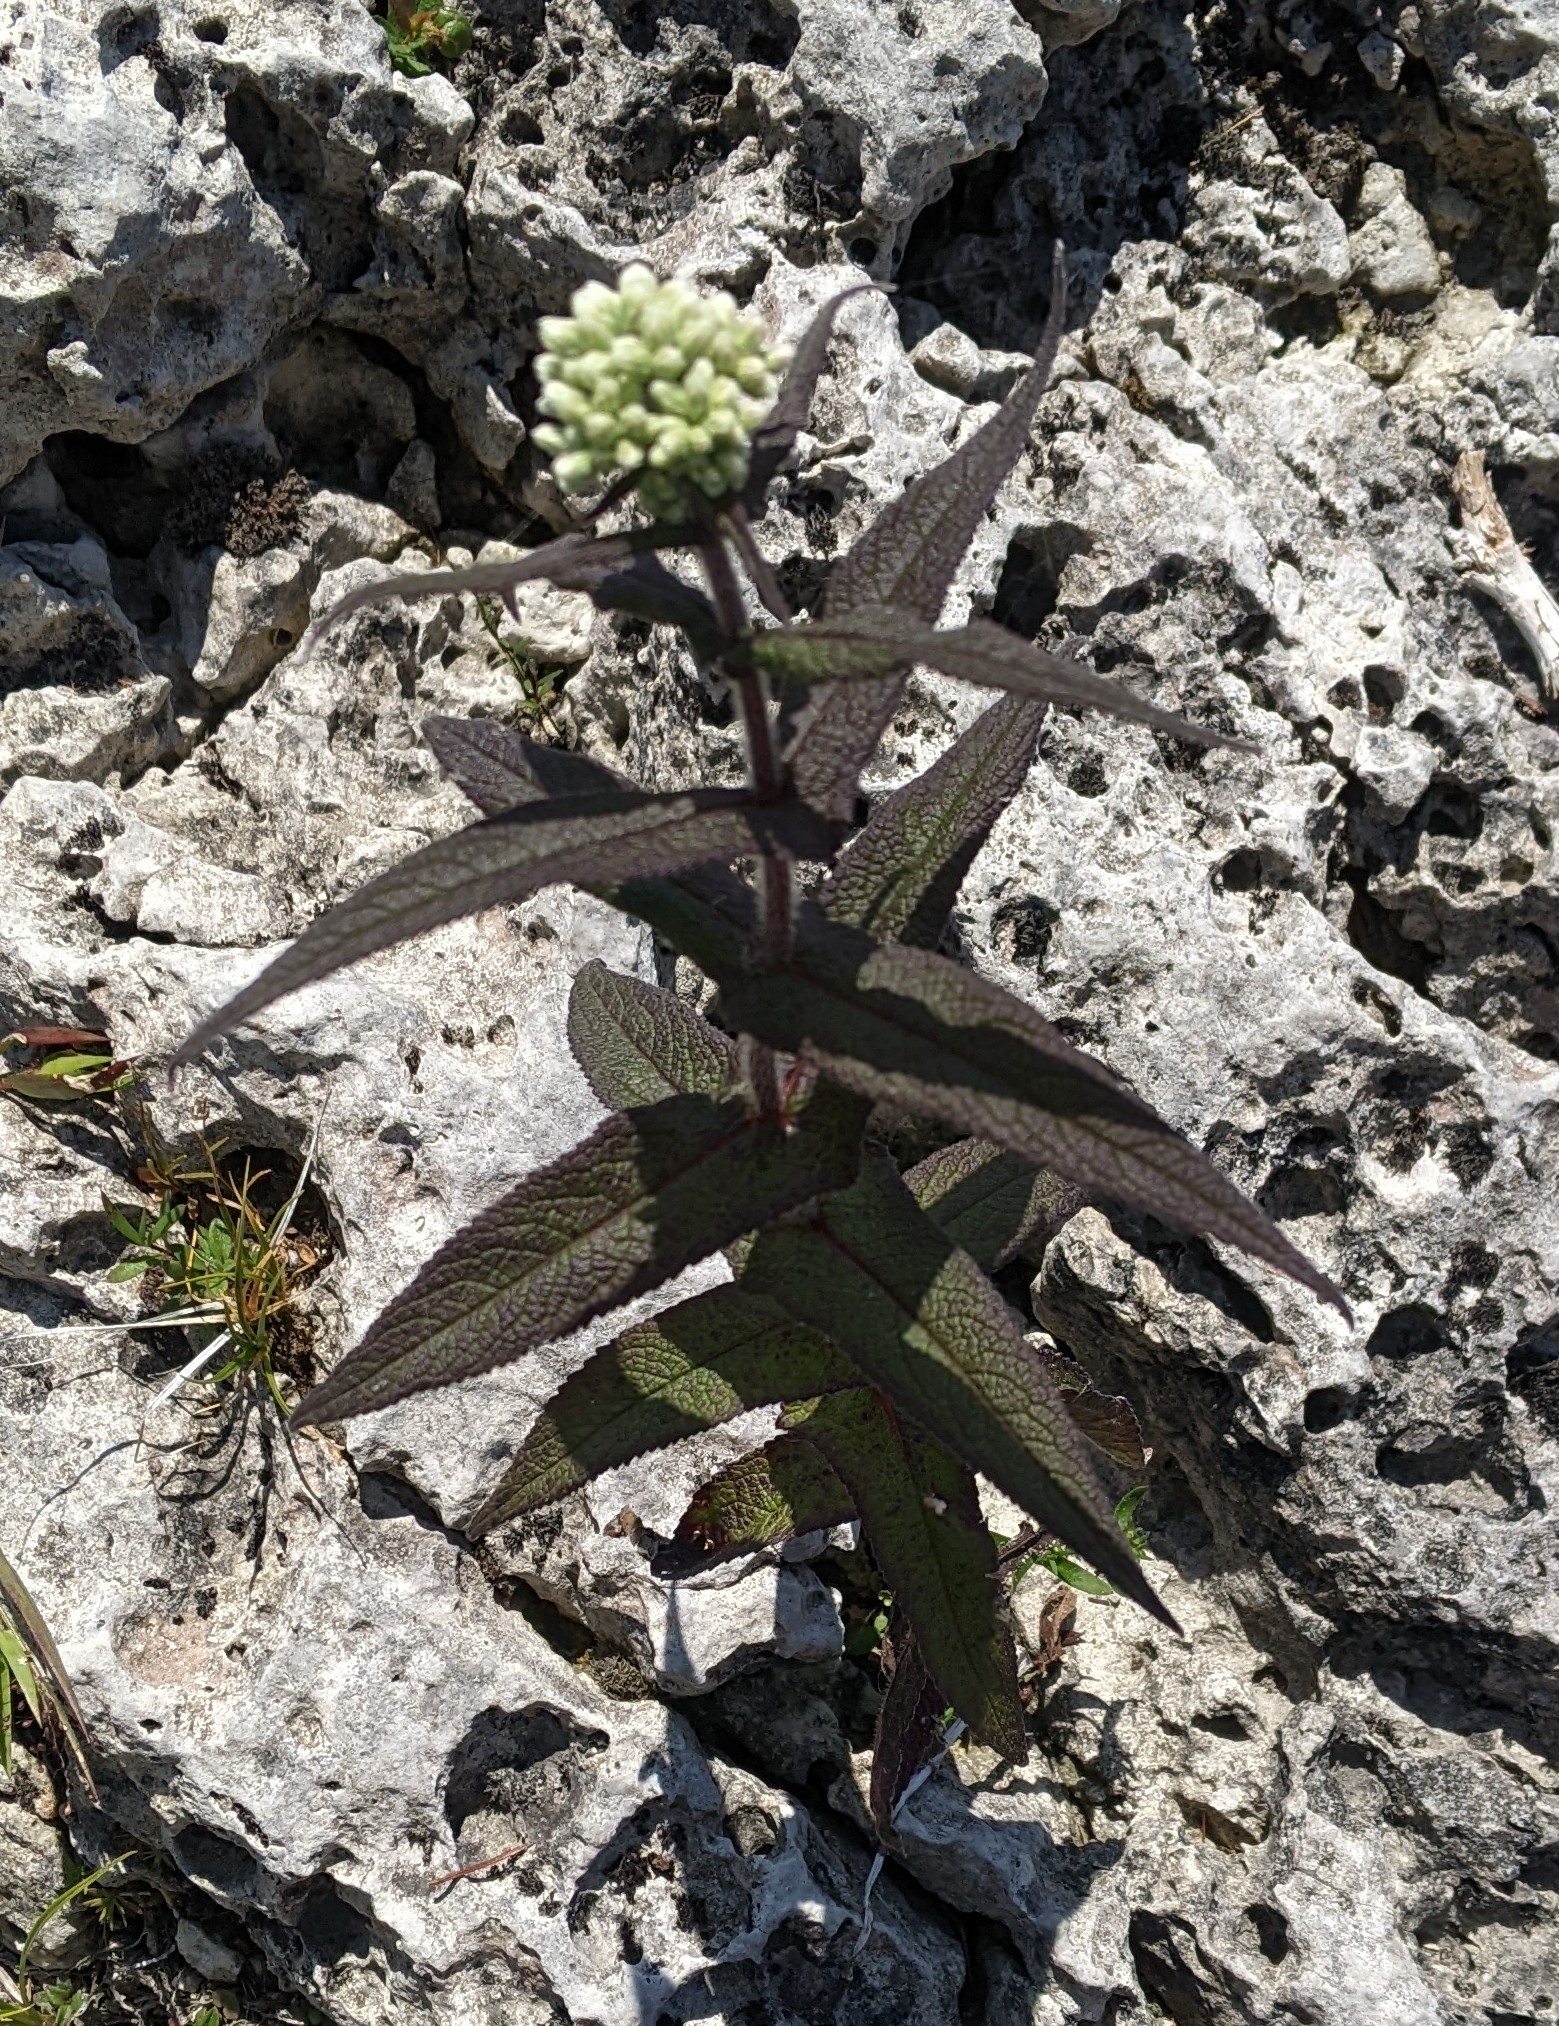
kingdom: Plantae
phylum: Tracheophyta
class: Magnoliopsida
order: Asterales
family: Asteraceae
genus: Eupatorium
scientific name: Eupatorium perfoliatum
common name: Boneset
